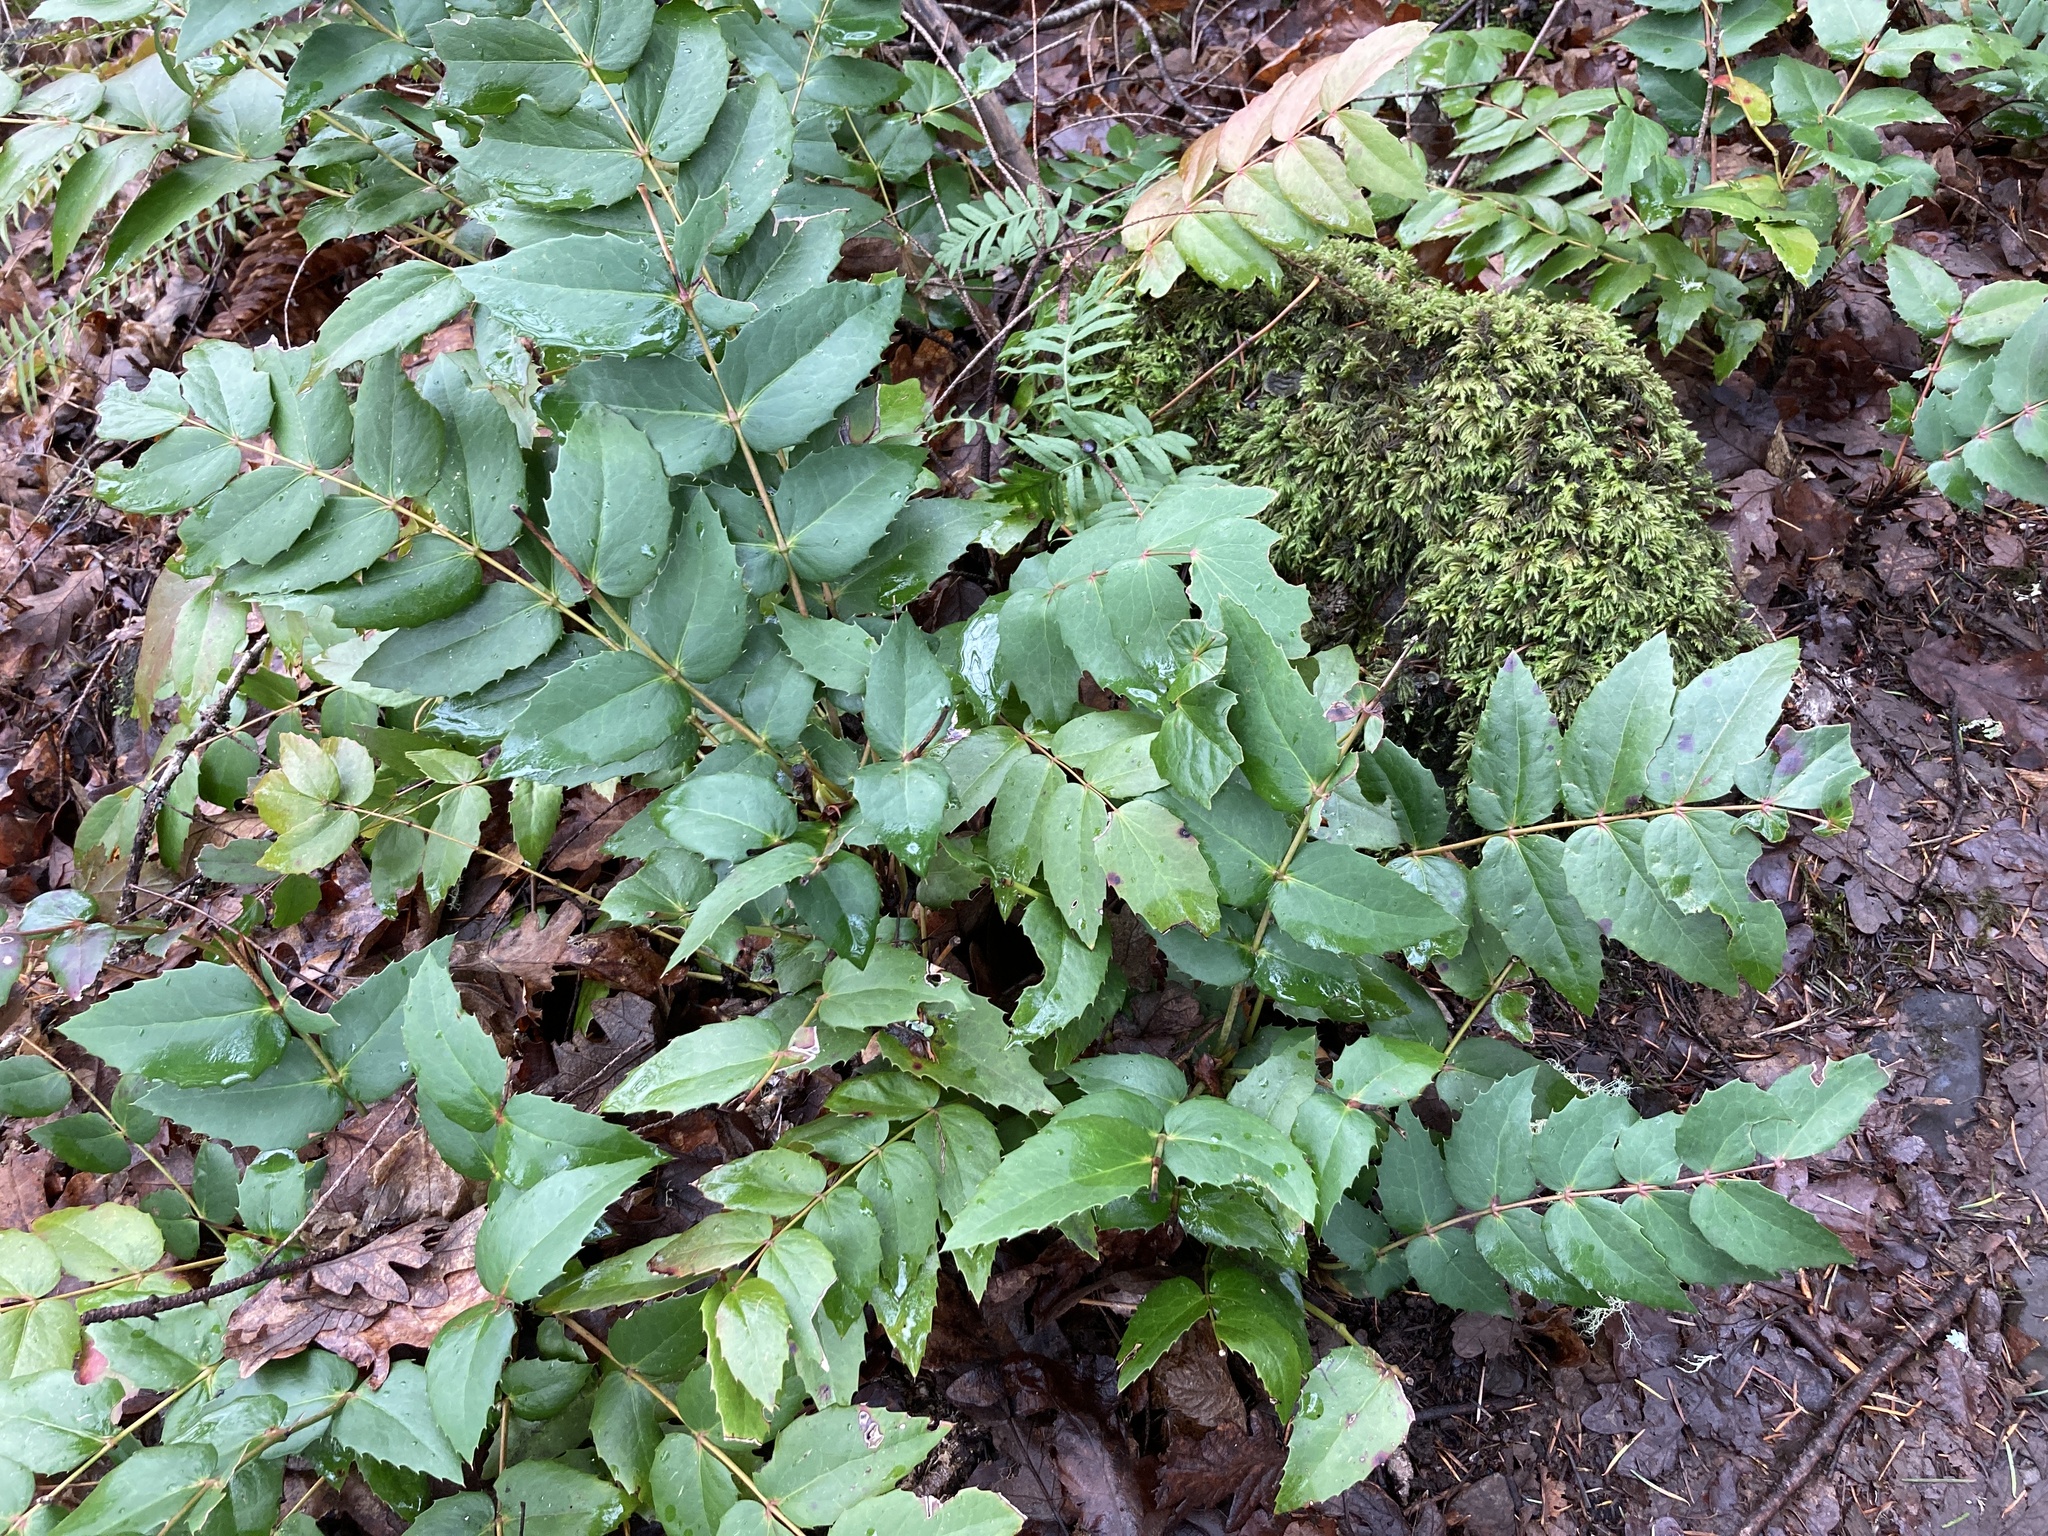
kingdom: Plantae
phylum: Tracheophyta
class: Magnoliopsida
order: Ranunculales
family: Berberidaceae
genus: Mahonia
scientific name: Mahonia nervosa
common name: Cascade oregon-grape
